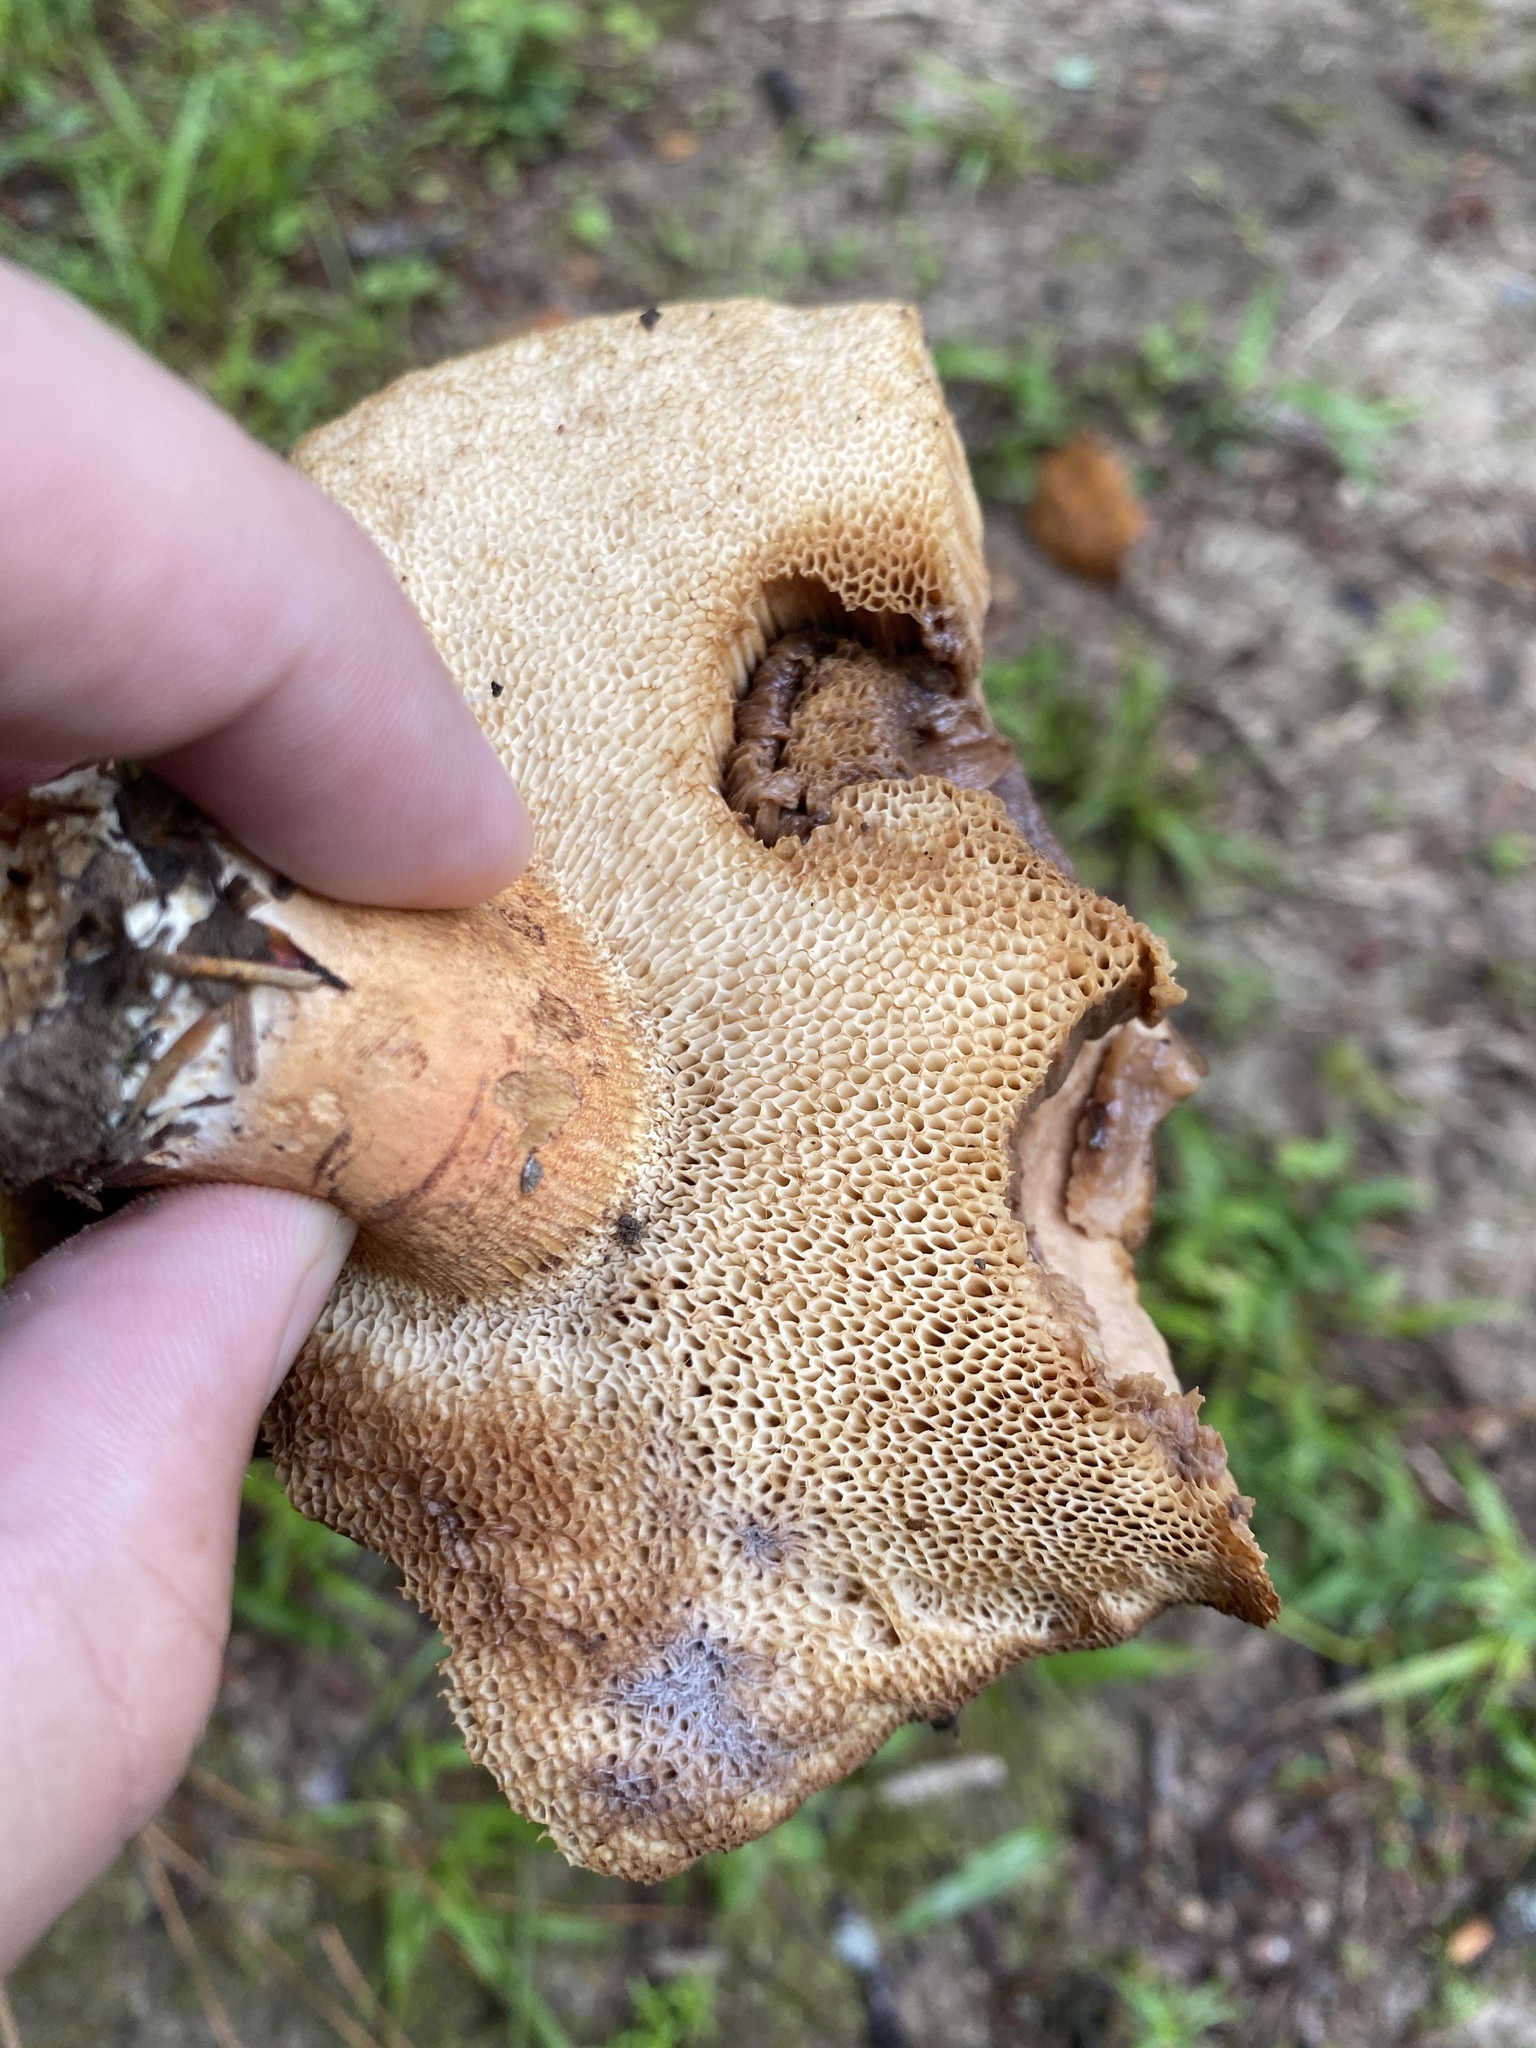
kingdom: Fungi
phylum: Basidiomycota
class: Agaricomycetes
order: Boletales
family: Boletaceae
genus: Tylopilus
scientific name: Tylopilus balloui
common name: Burnt-orange bolete
